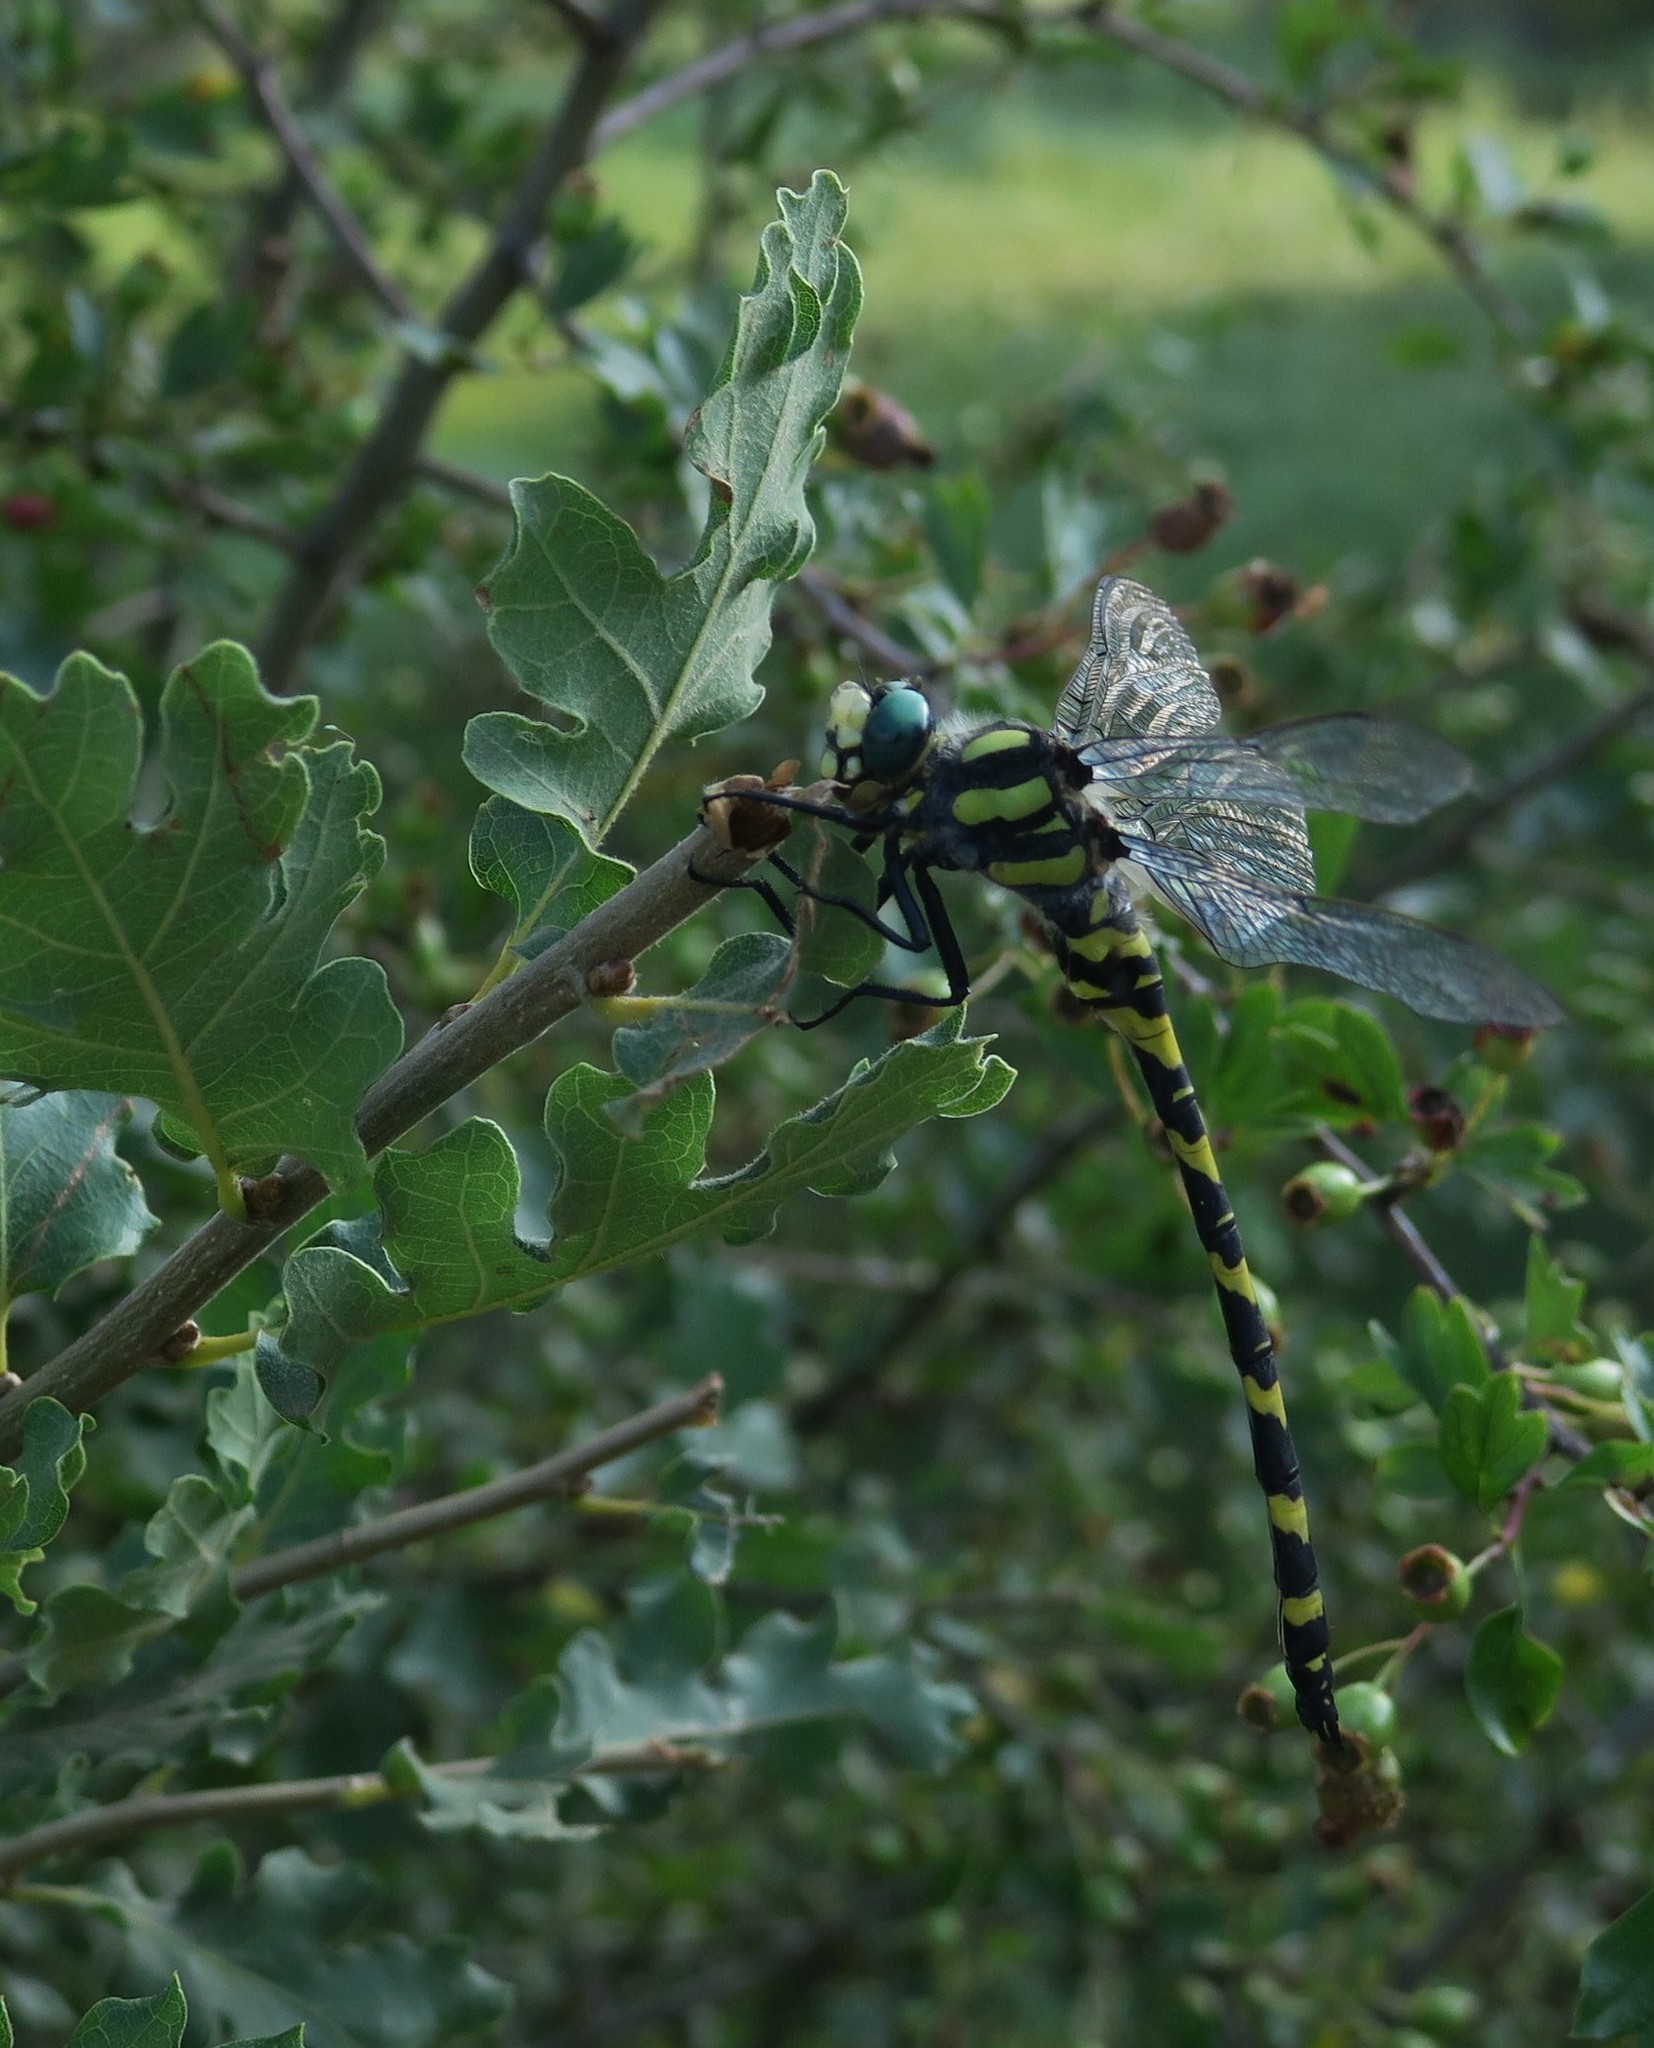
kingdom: Animalia
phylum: Arthropoda
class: Insecta
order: Odonata
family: Cordulegastridae
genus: Cordulegaster
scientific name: Cordulegaster helladica
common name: Greek goldenring
